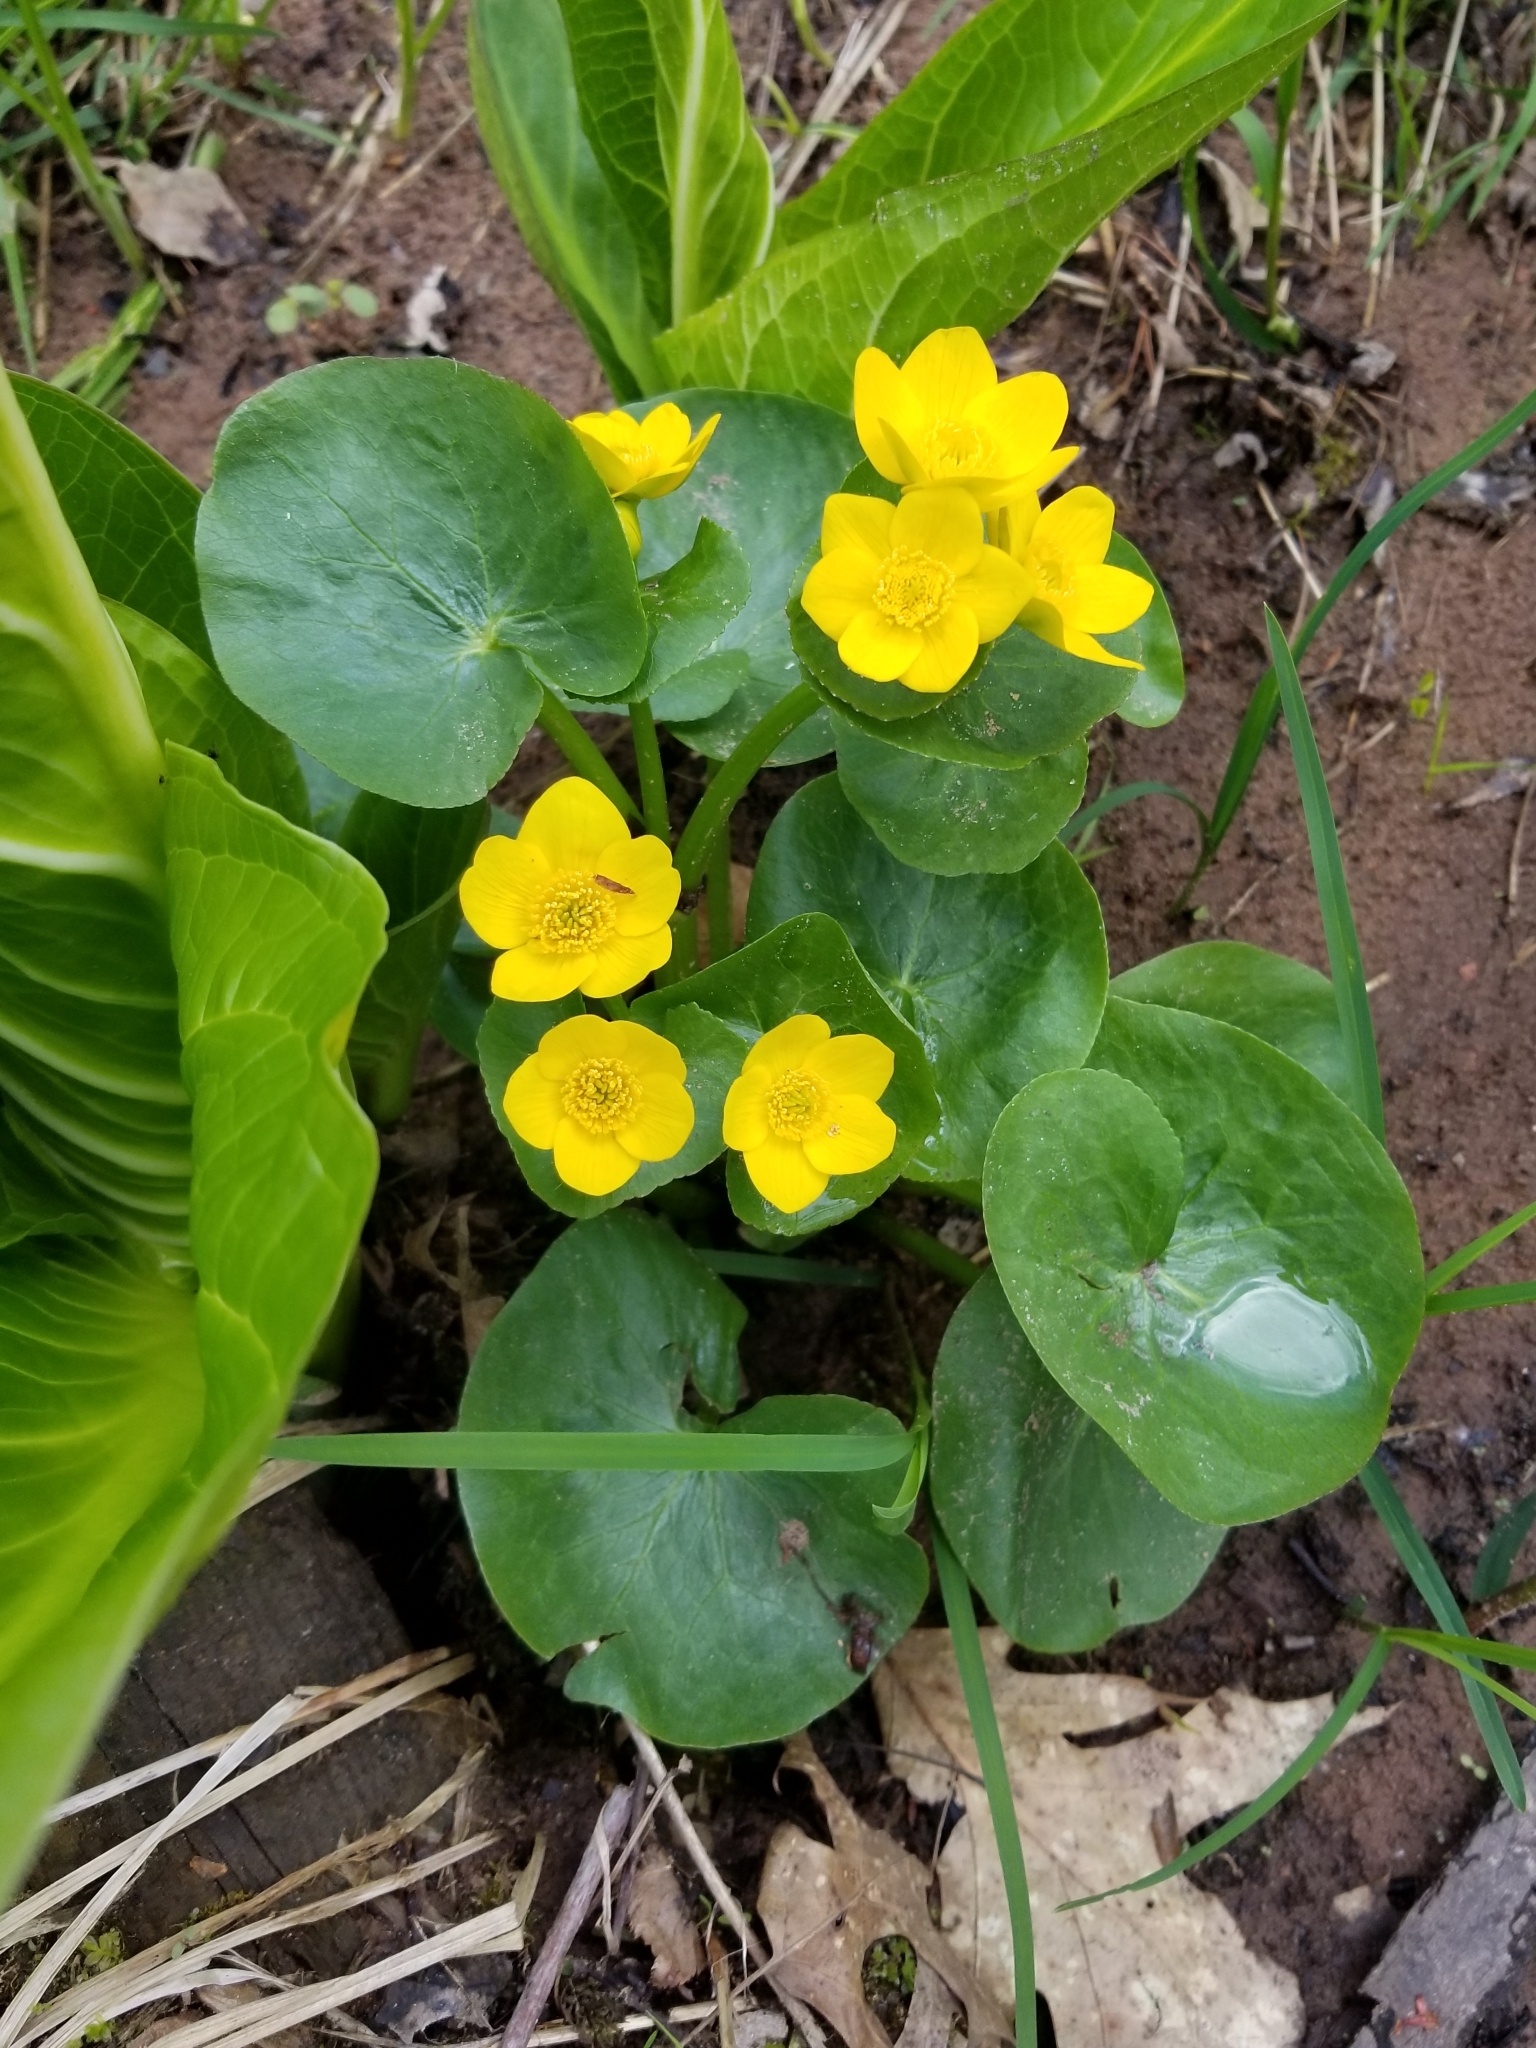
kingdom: Plantae
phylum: Tracheophyta
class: Magnoliopsida
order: Ranunculales
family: Ranunculaceae
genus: Caltha
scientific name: Caltha palustris
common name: Marsh marigold
